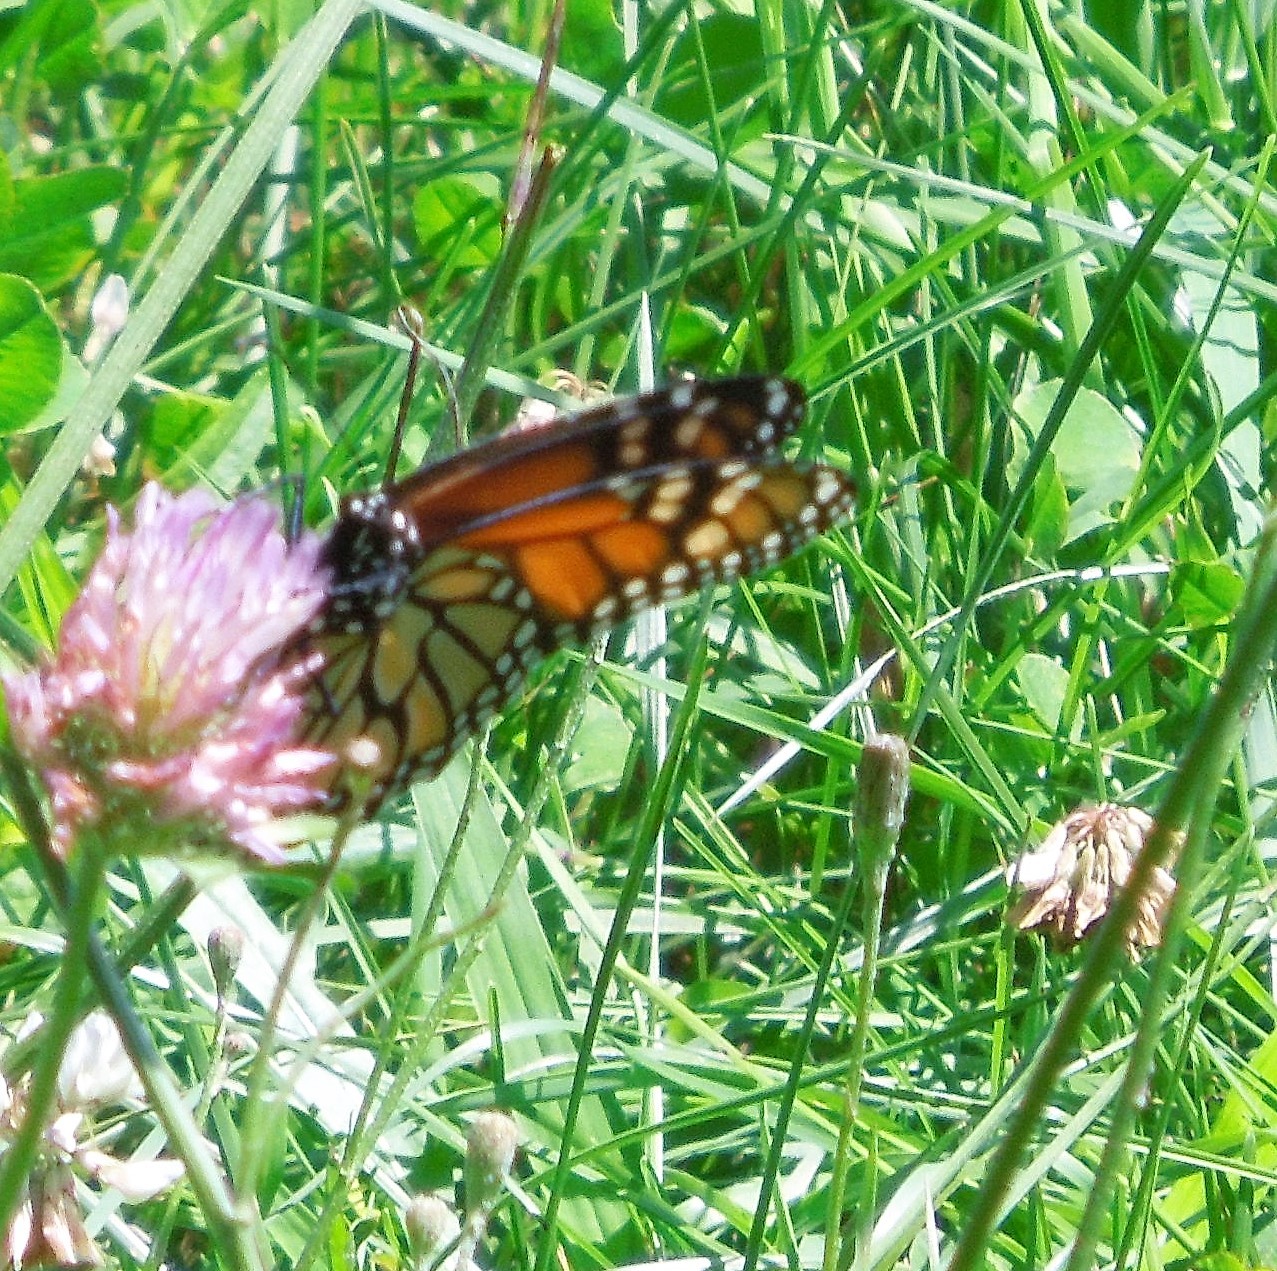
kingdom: Animalia
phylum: Arthropoda
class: Insecta
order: Lepidoptera
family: Nymphalidae
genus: Danaus
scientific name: Danaus plexippus
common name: Monarch
